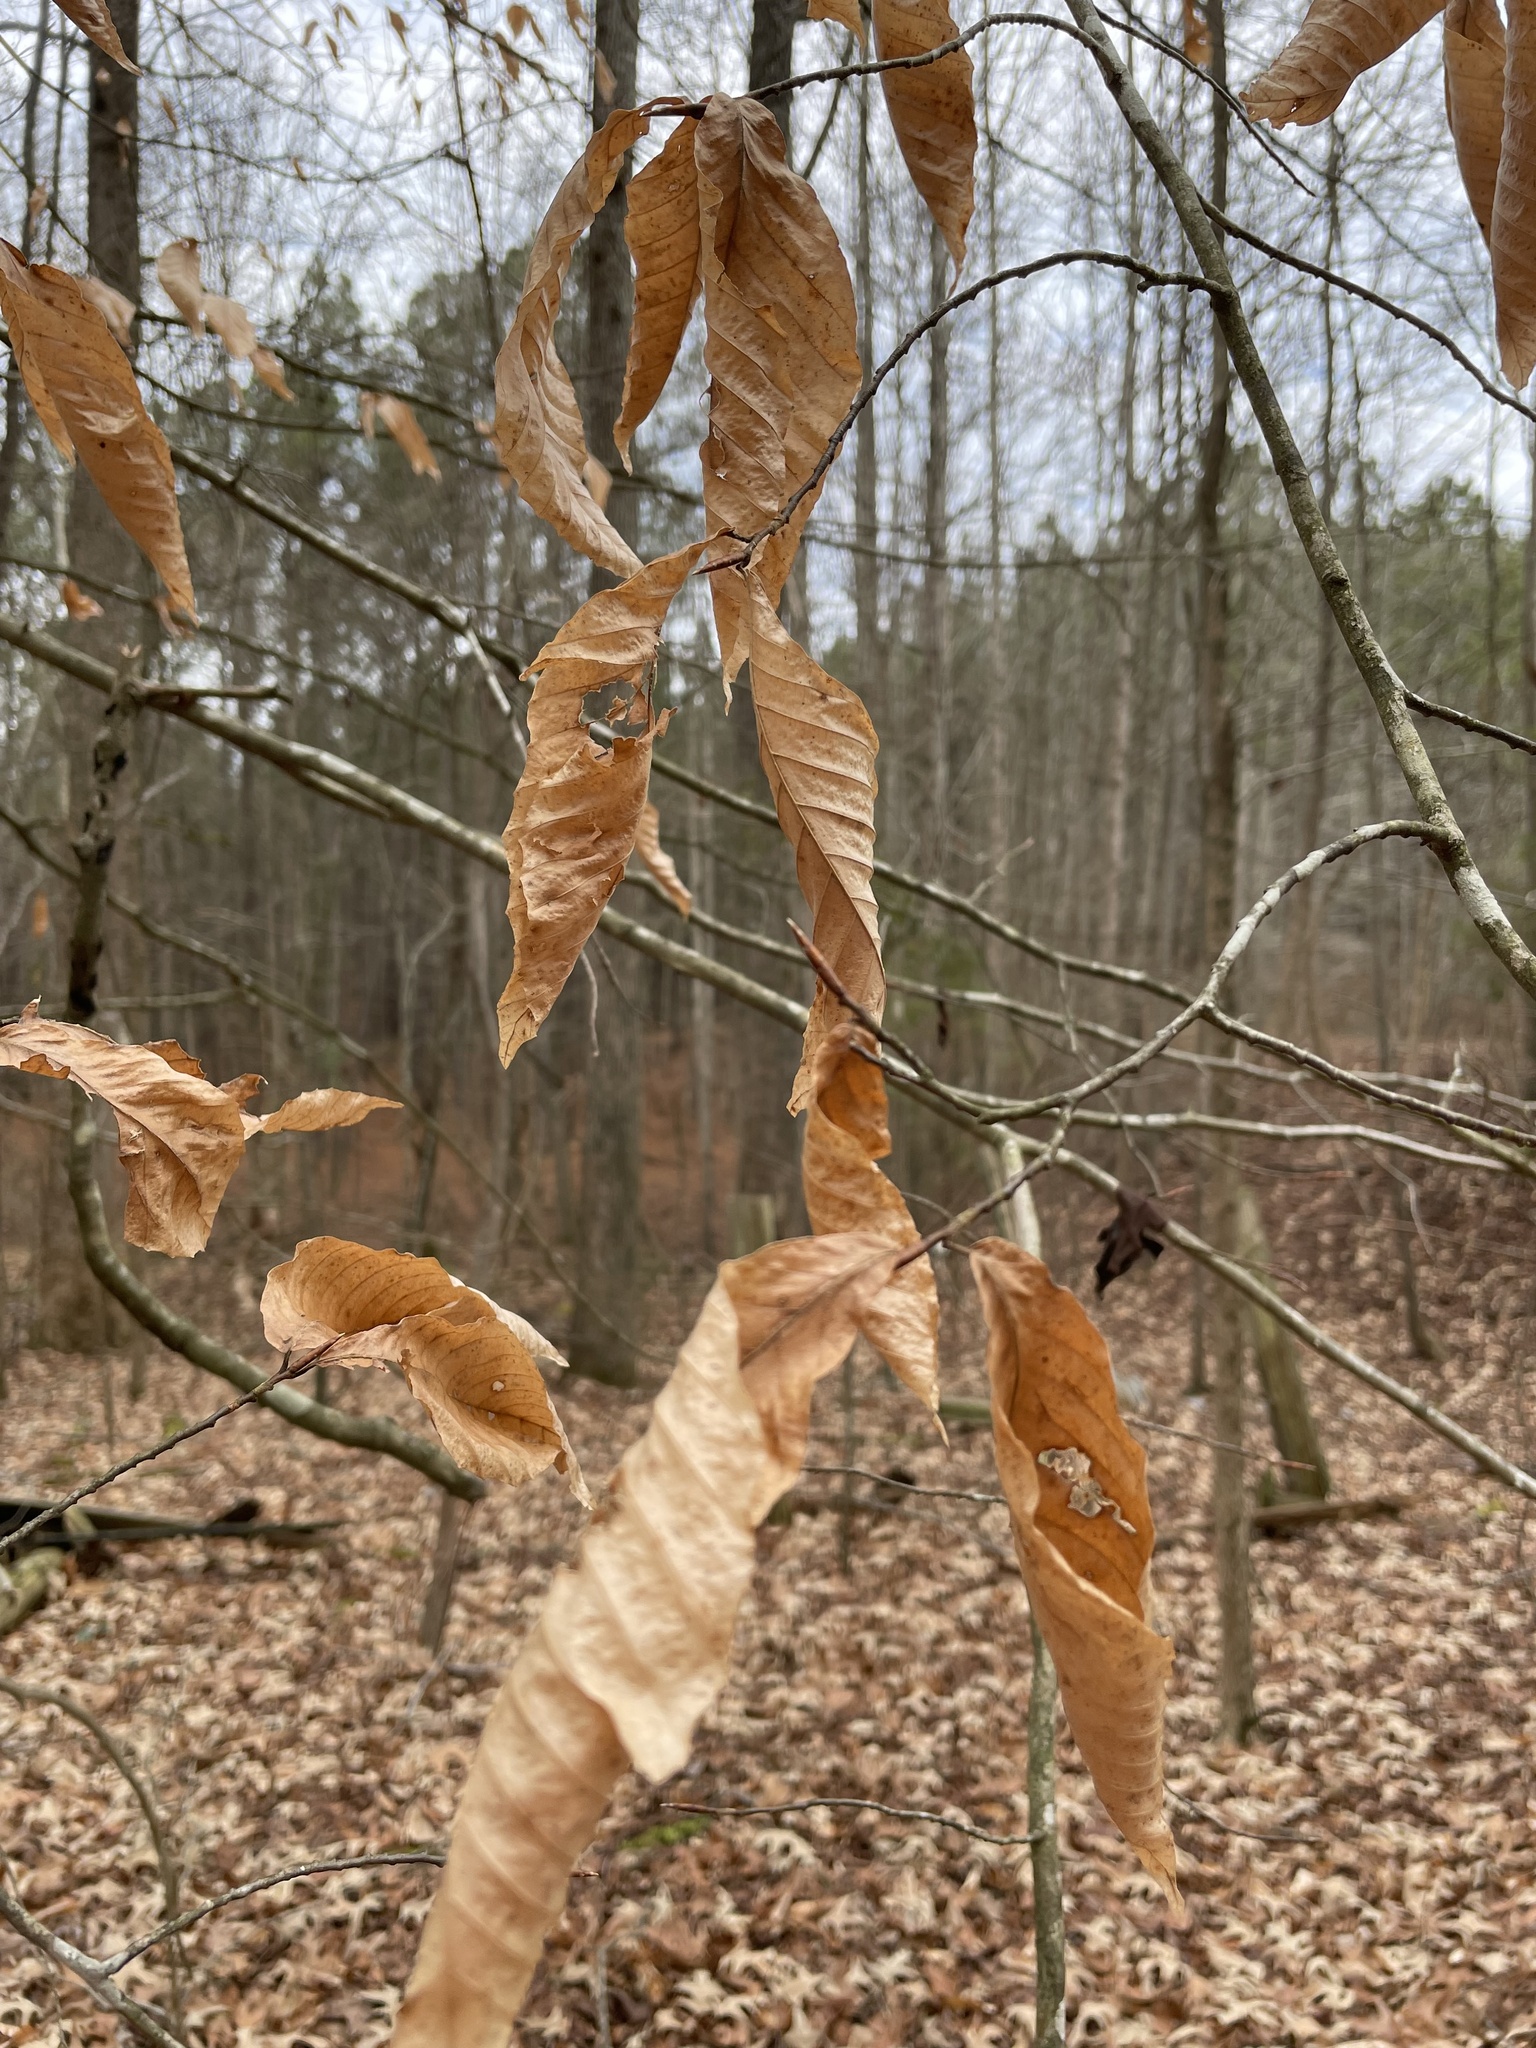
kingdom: Plantae
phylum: Tracheophyta
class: Magnoliopsida
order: Fagales
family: Fagaceae
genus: Fagus
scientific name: Fagus grandifolia
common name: American beech
